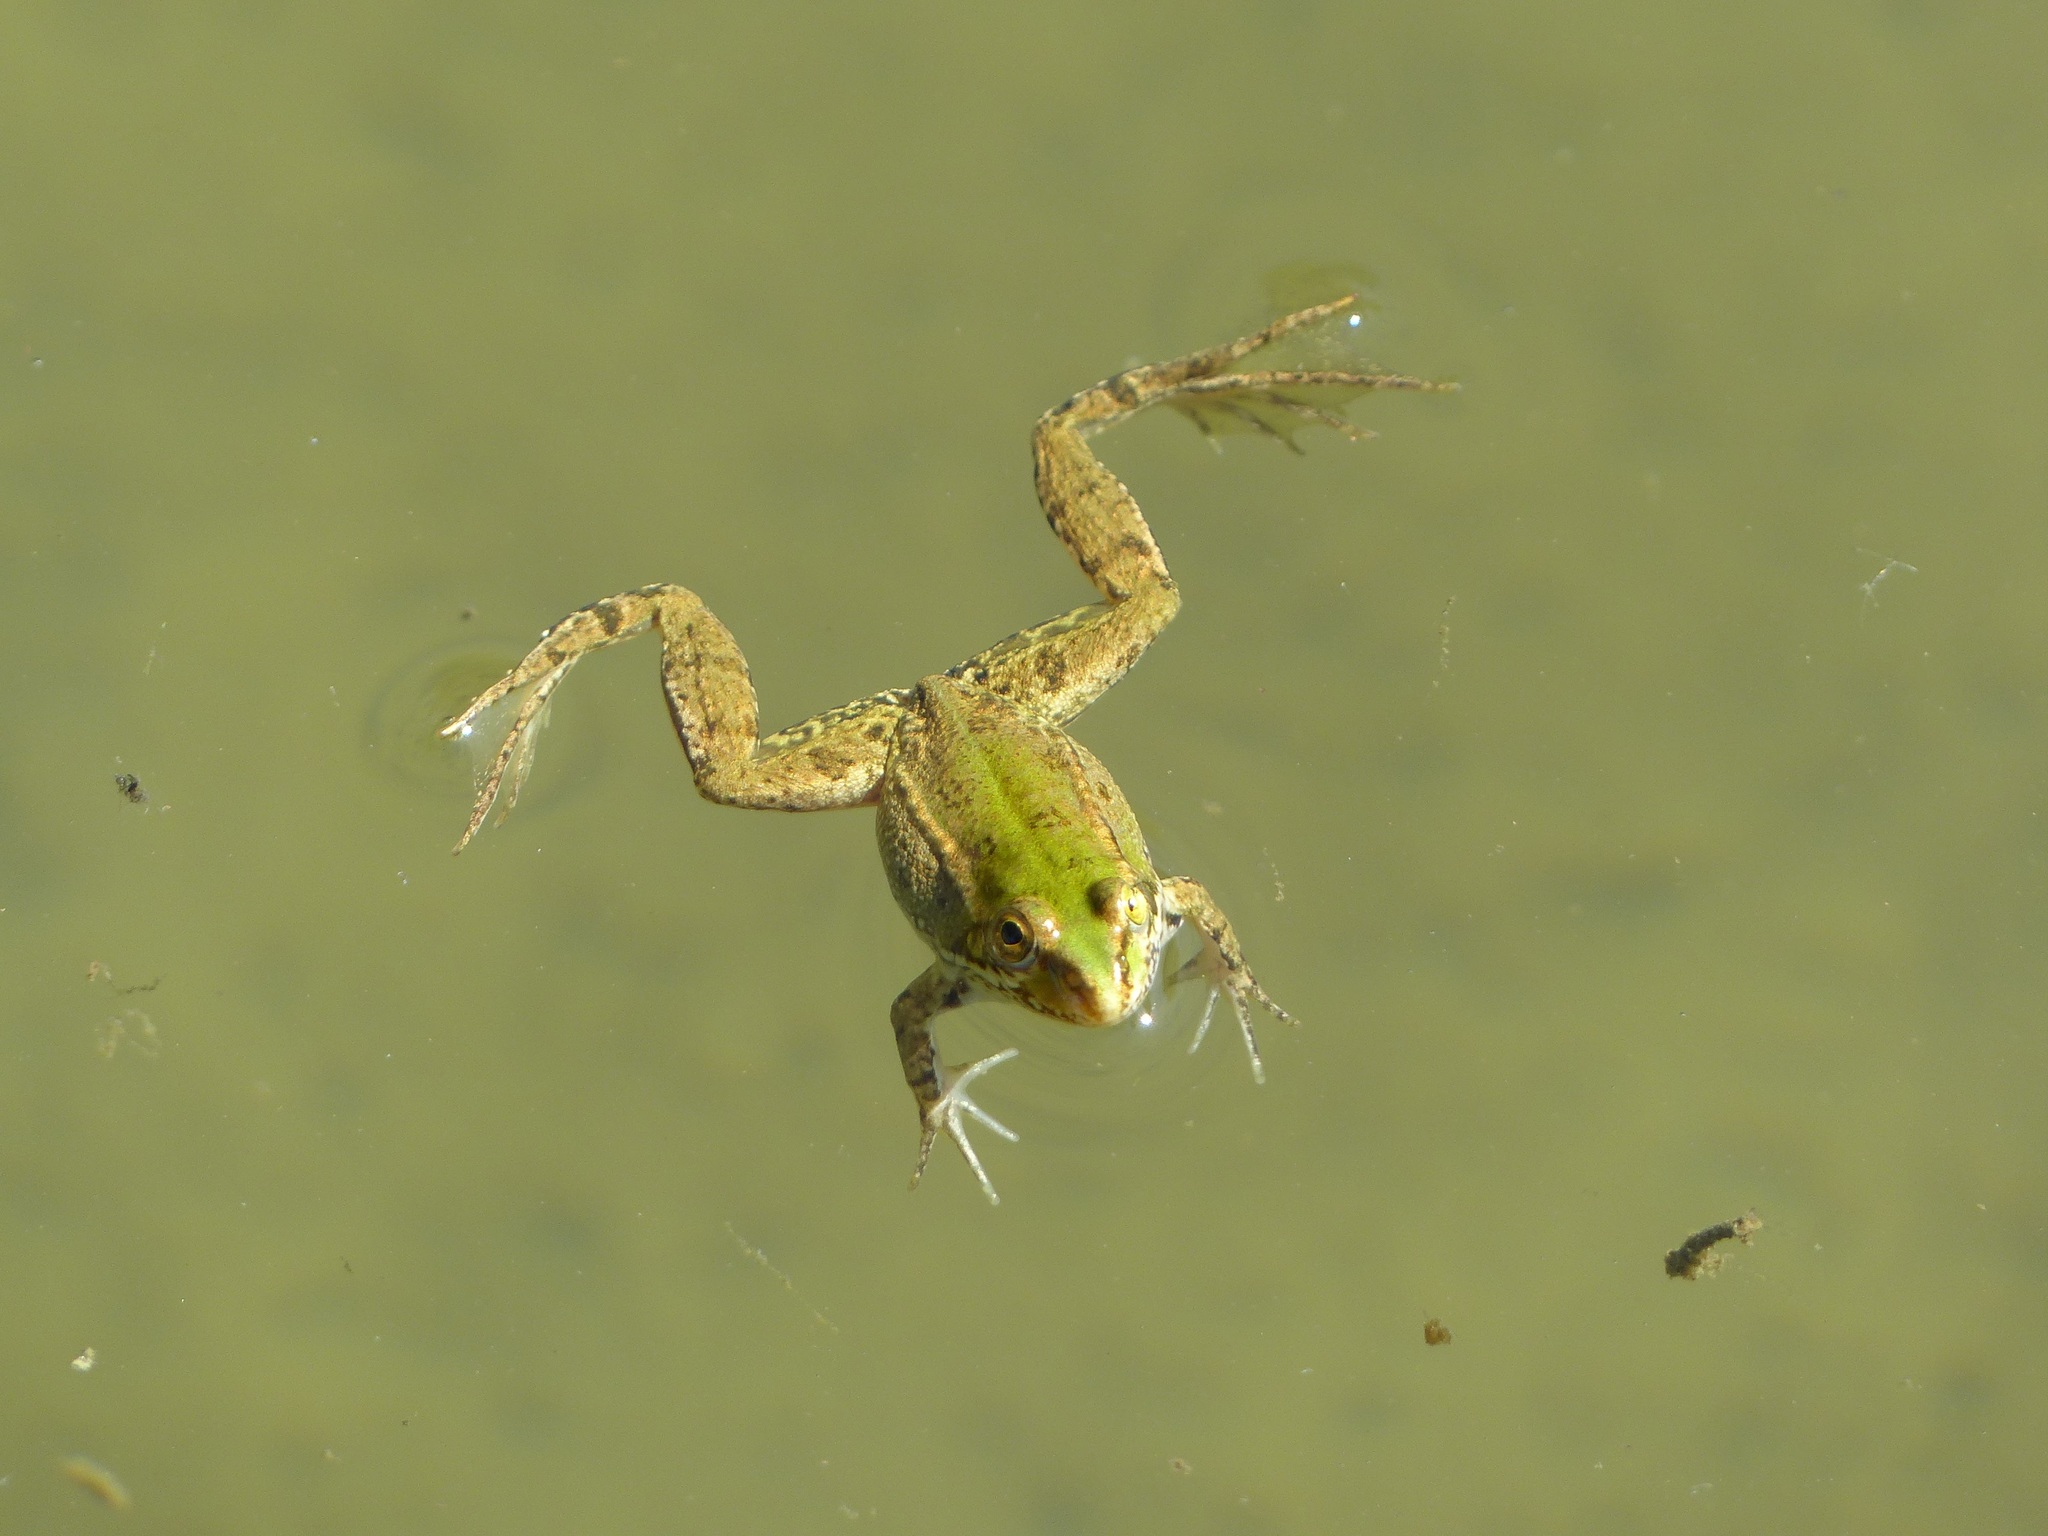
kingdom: Animalia
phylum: Chordata
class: Amphibia
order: Anura
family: Ranidae
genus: Pelophylax
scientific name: Pelophylax perezi
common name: Perez's frog
